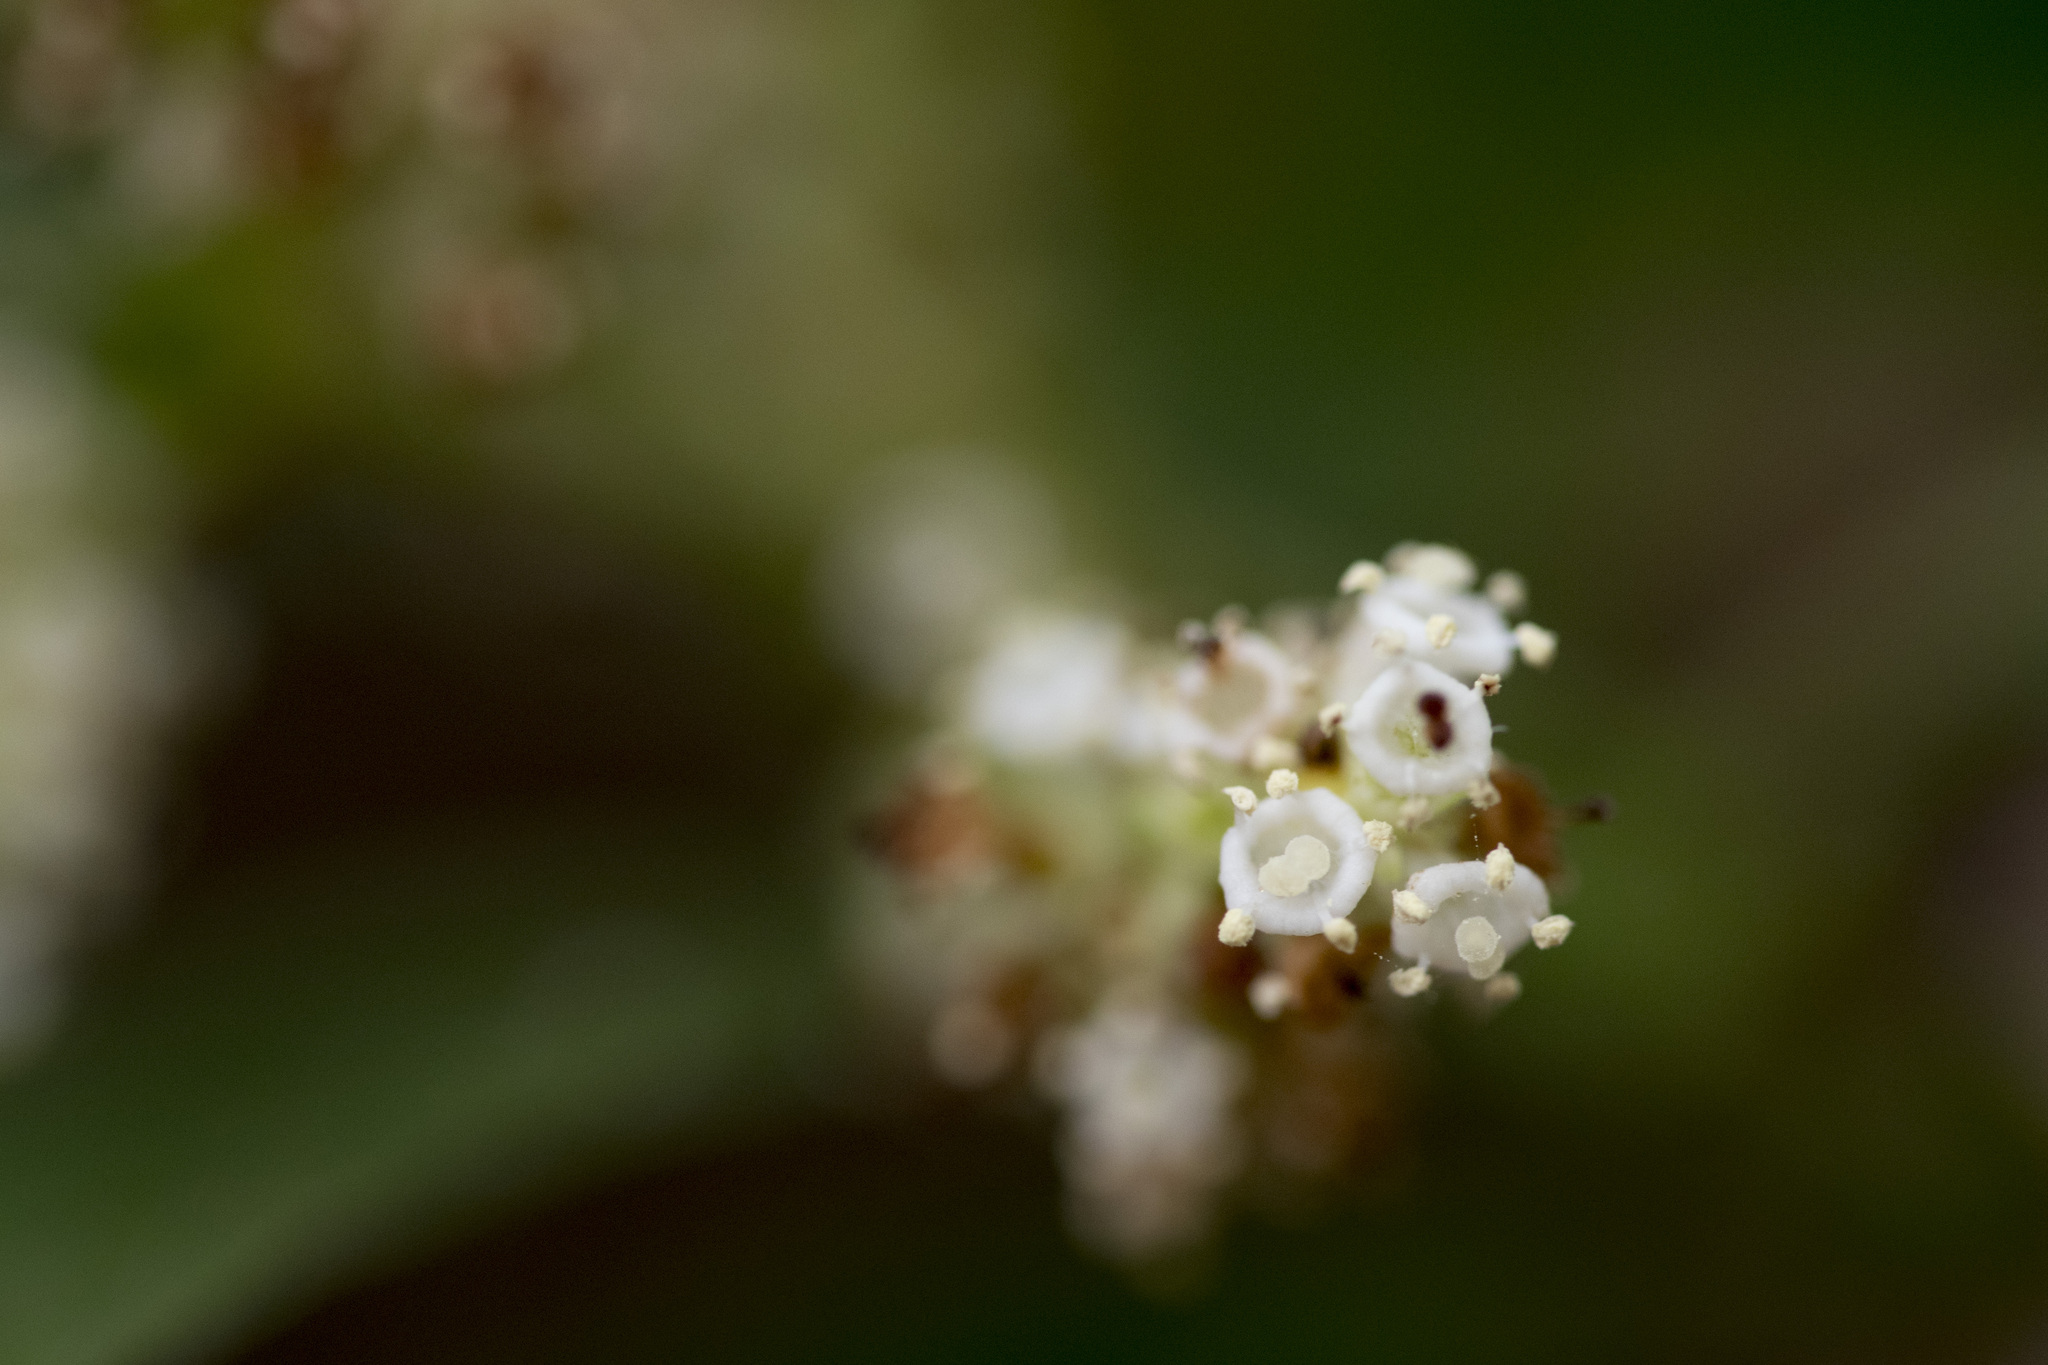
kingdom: Plantae
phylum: Tracheophyta
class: Magnoliopsida
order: Gentianales
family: Rubiaceae
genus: Wendlandia
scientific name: Wendlandia uvariifolia
